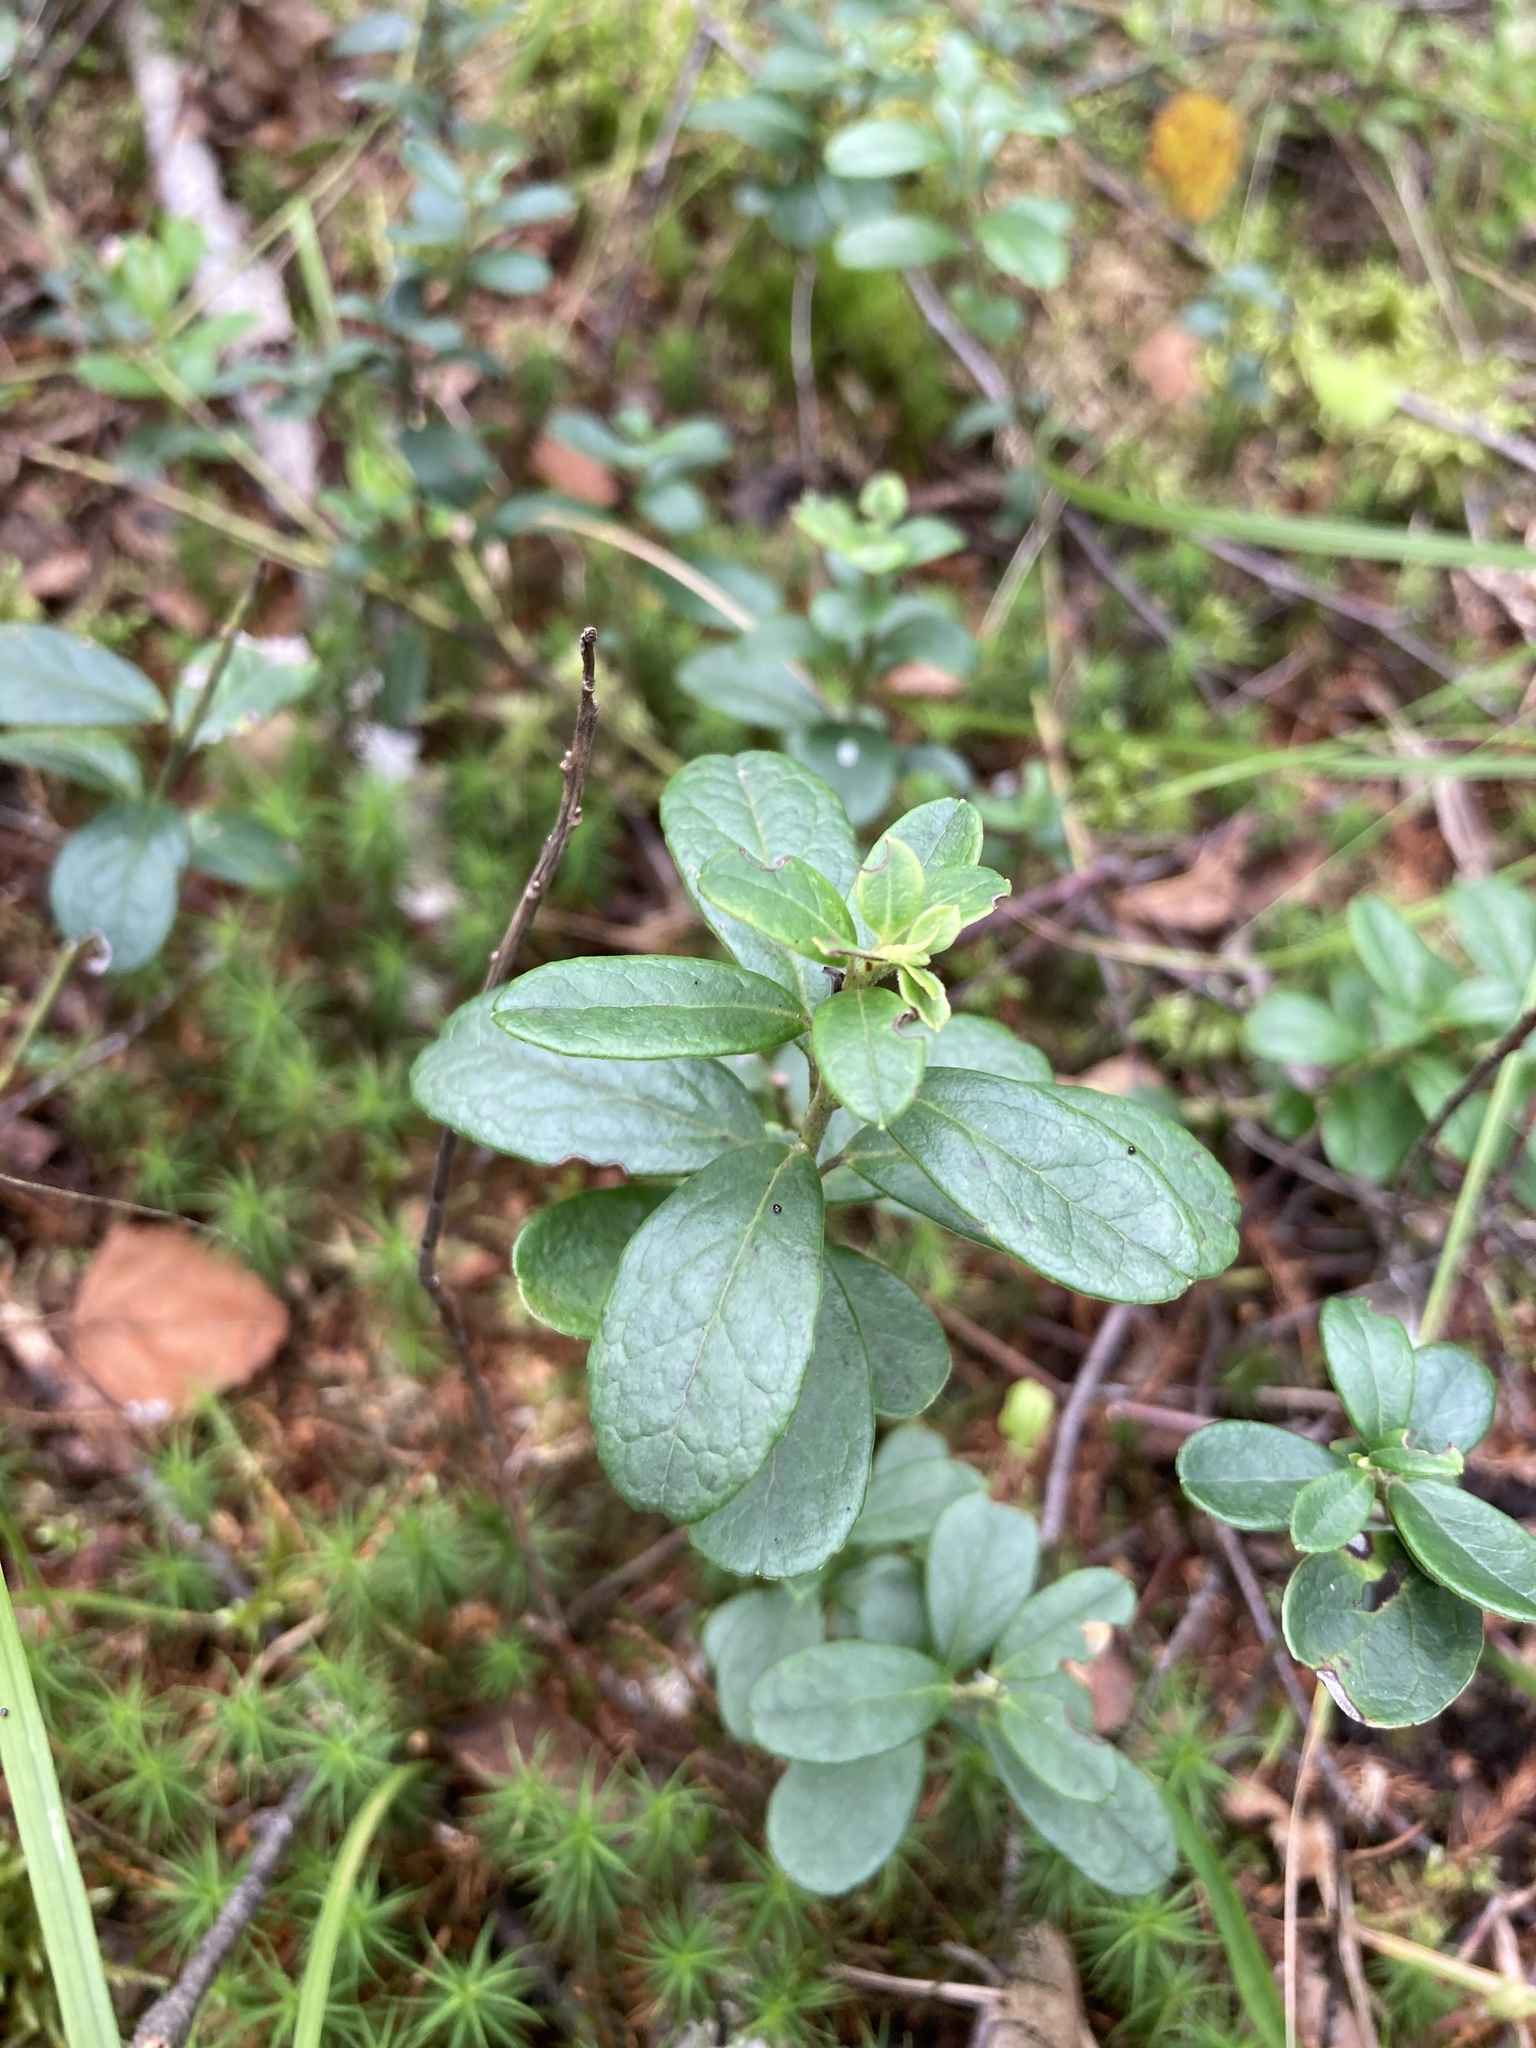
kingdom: Plantae
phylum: Tracheophyta
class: Magnoliopsida
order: Ericales
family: Ericaceae
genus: Vaccinium
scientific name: Vaccinium vitis-idaea
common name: Cowberry
